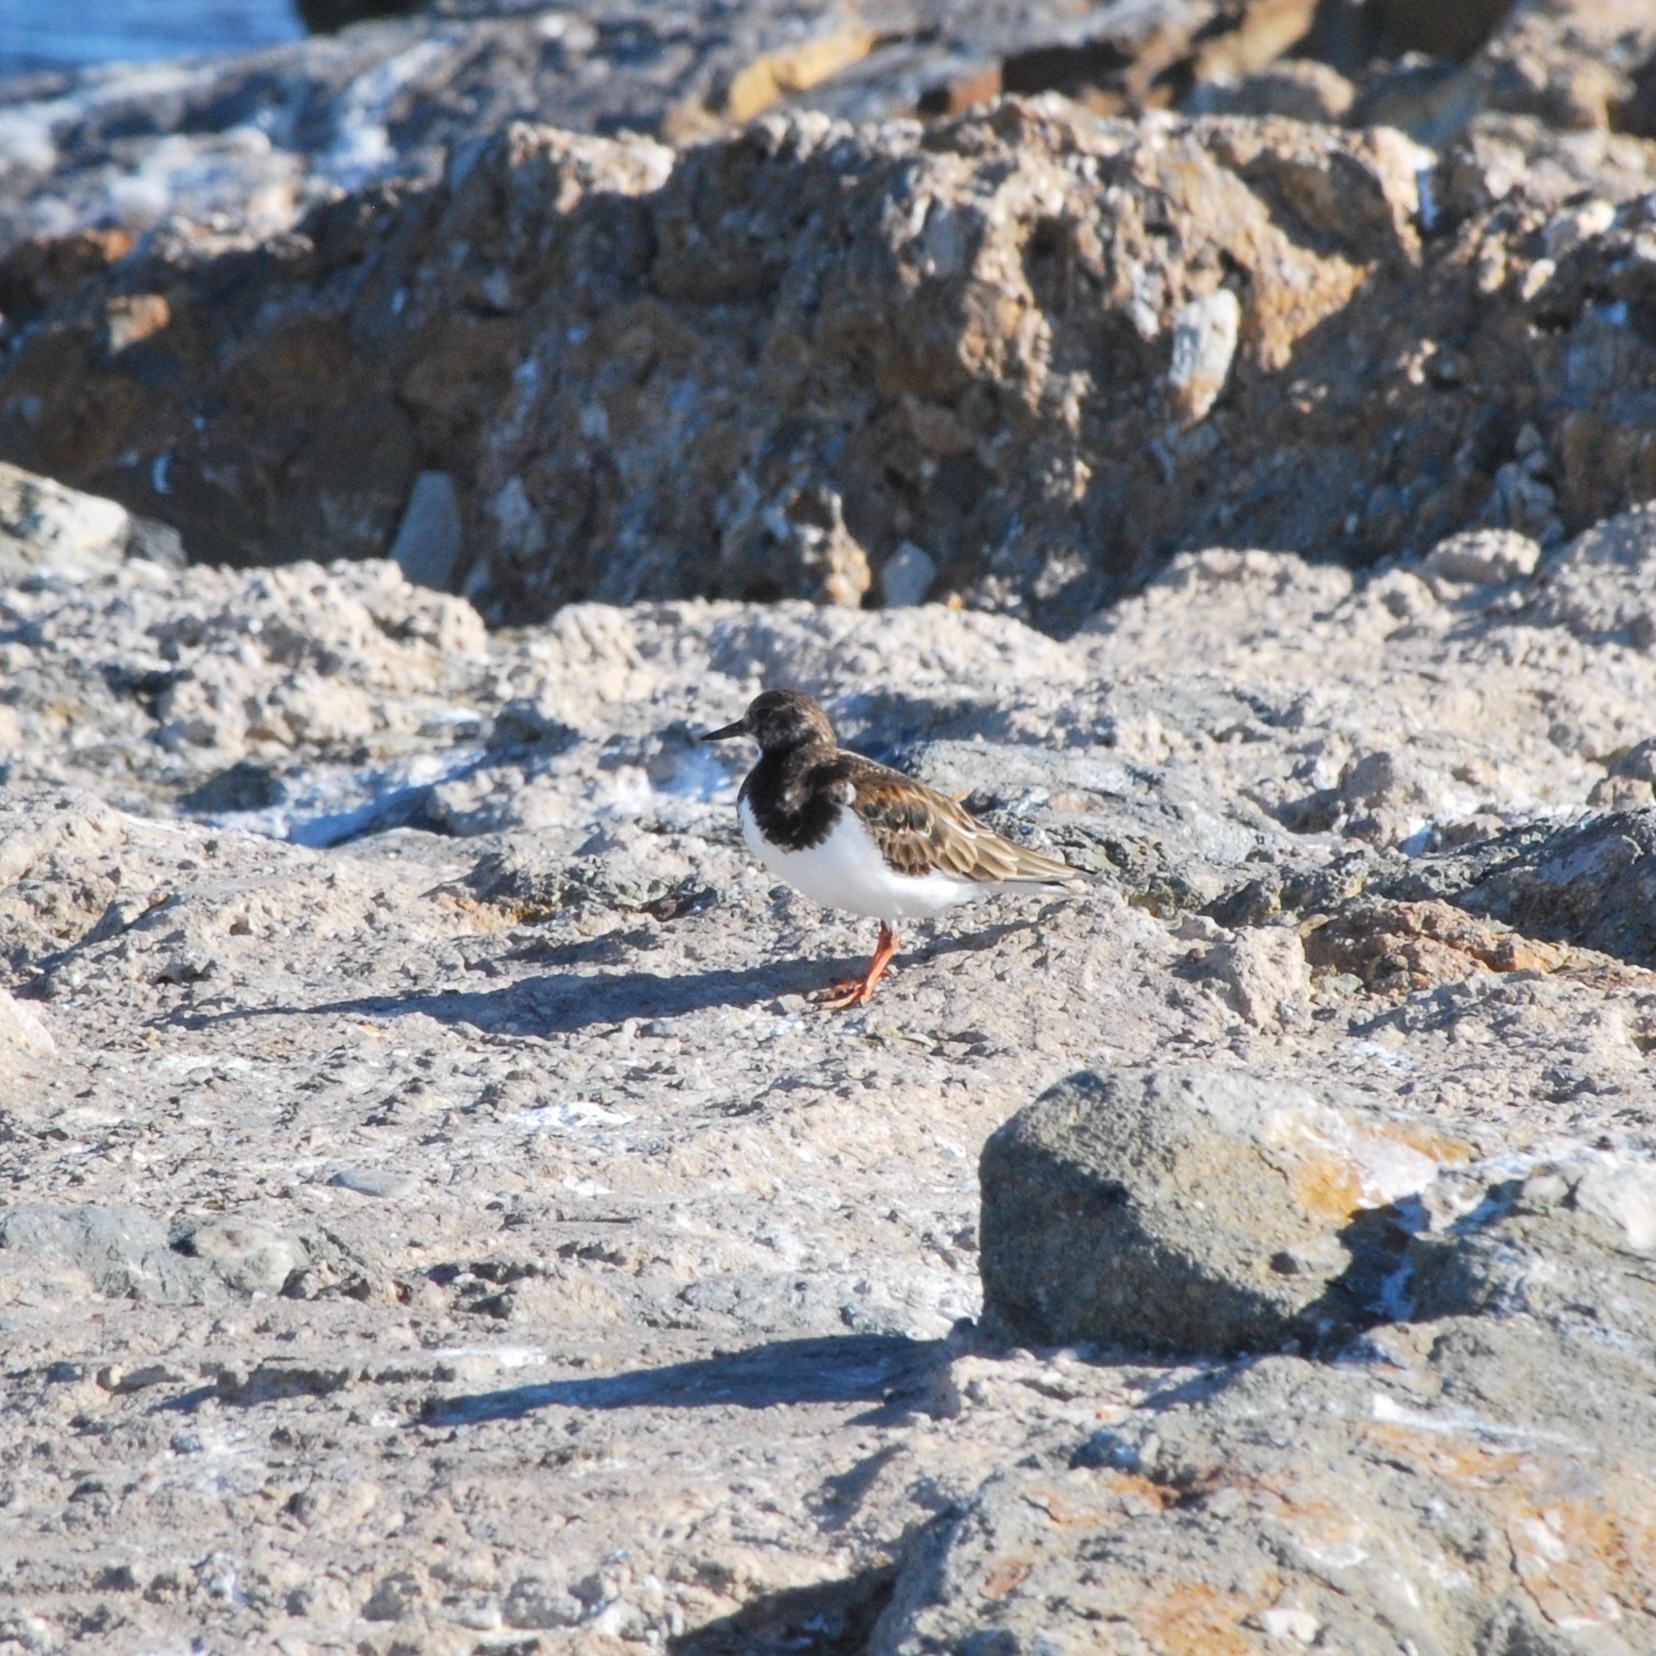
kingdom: Animalia
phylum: Chordata
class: Aves
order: Charadriiformes
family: Scolopacidae
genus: Arenaria
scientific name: Arenaria interpres
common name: Ruddy turnstone
